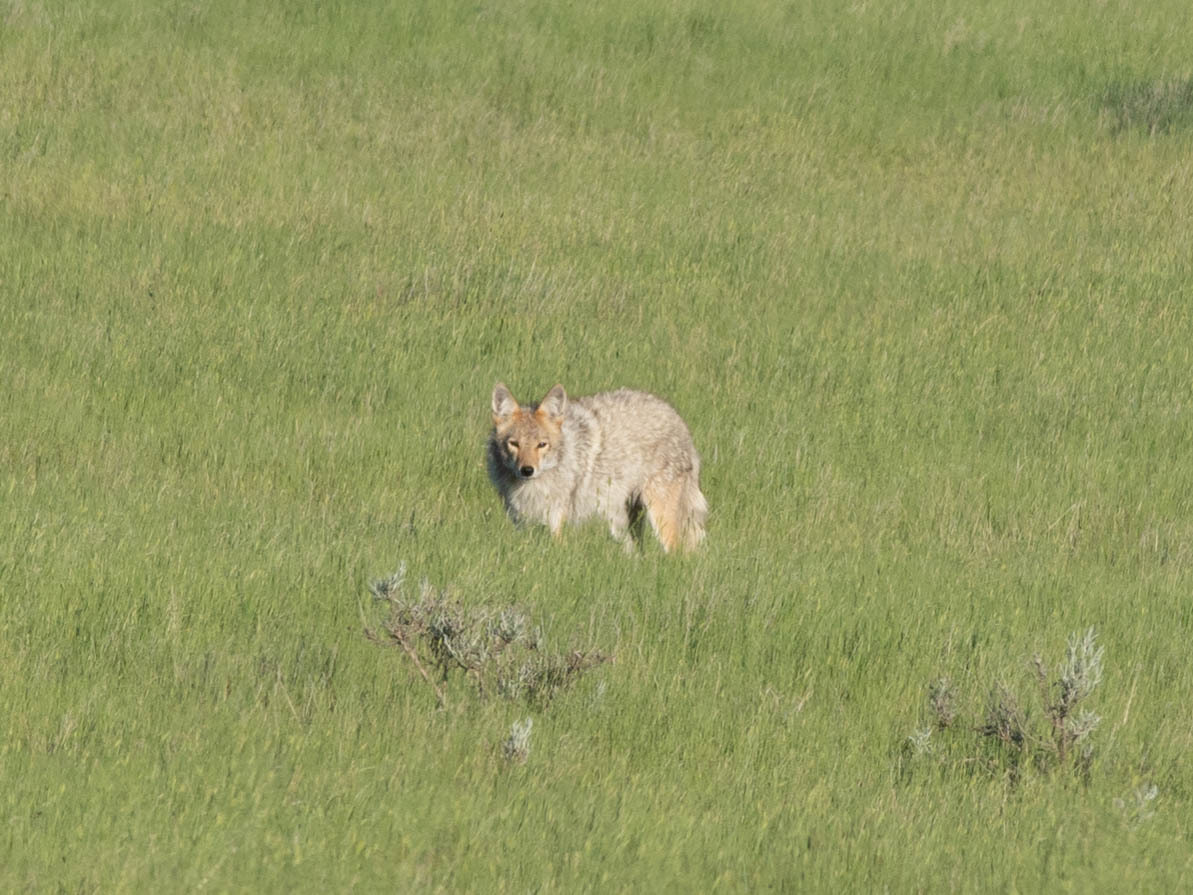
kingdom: Animalia
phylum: Chordata
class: Mammalia
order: Carnivora
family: Canidae
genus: Canis
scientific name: Canis latrans
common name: Coyote
